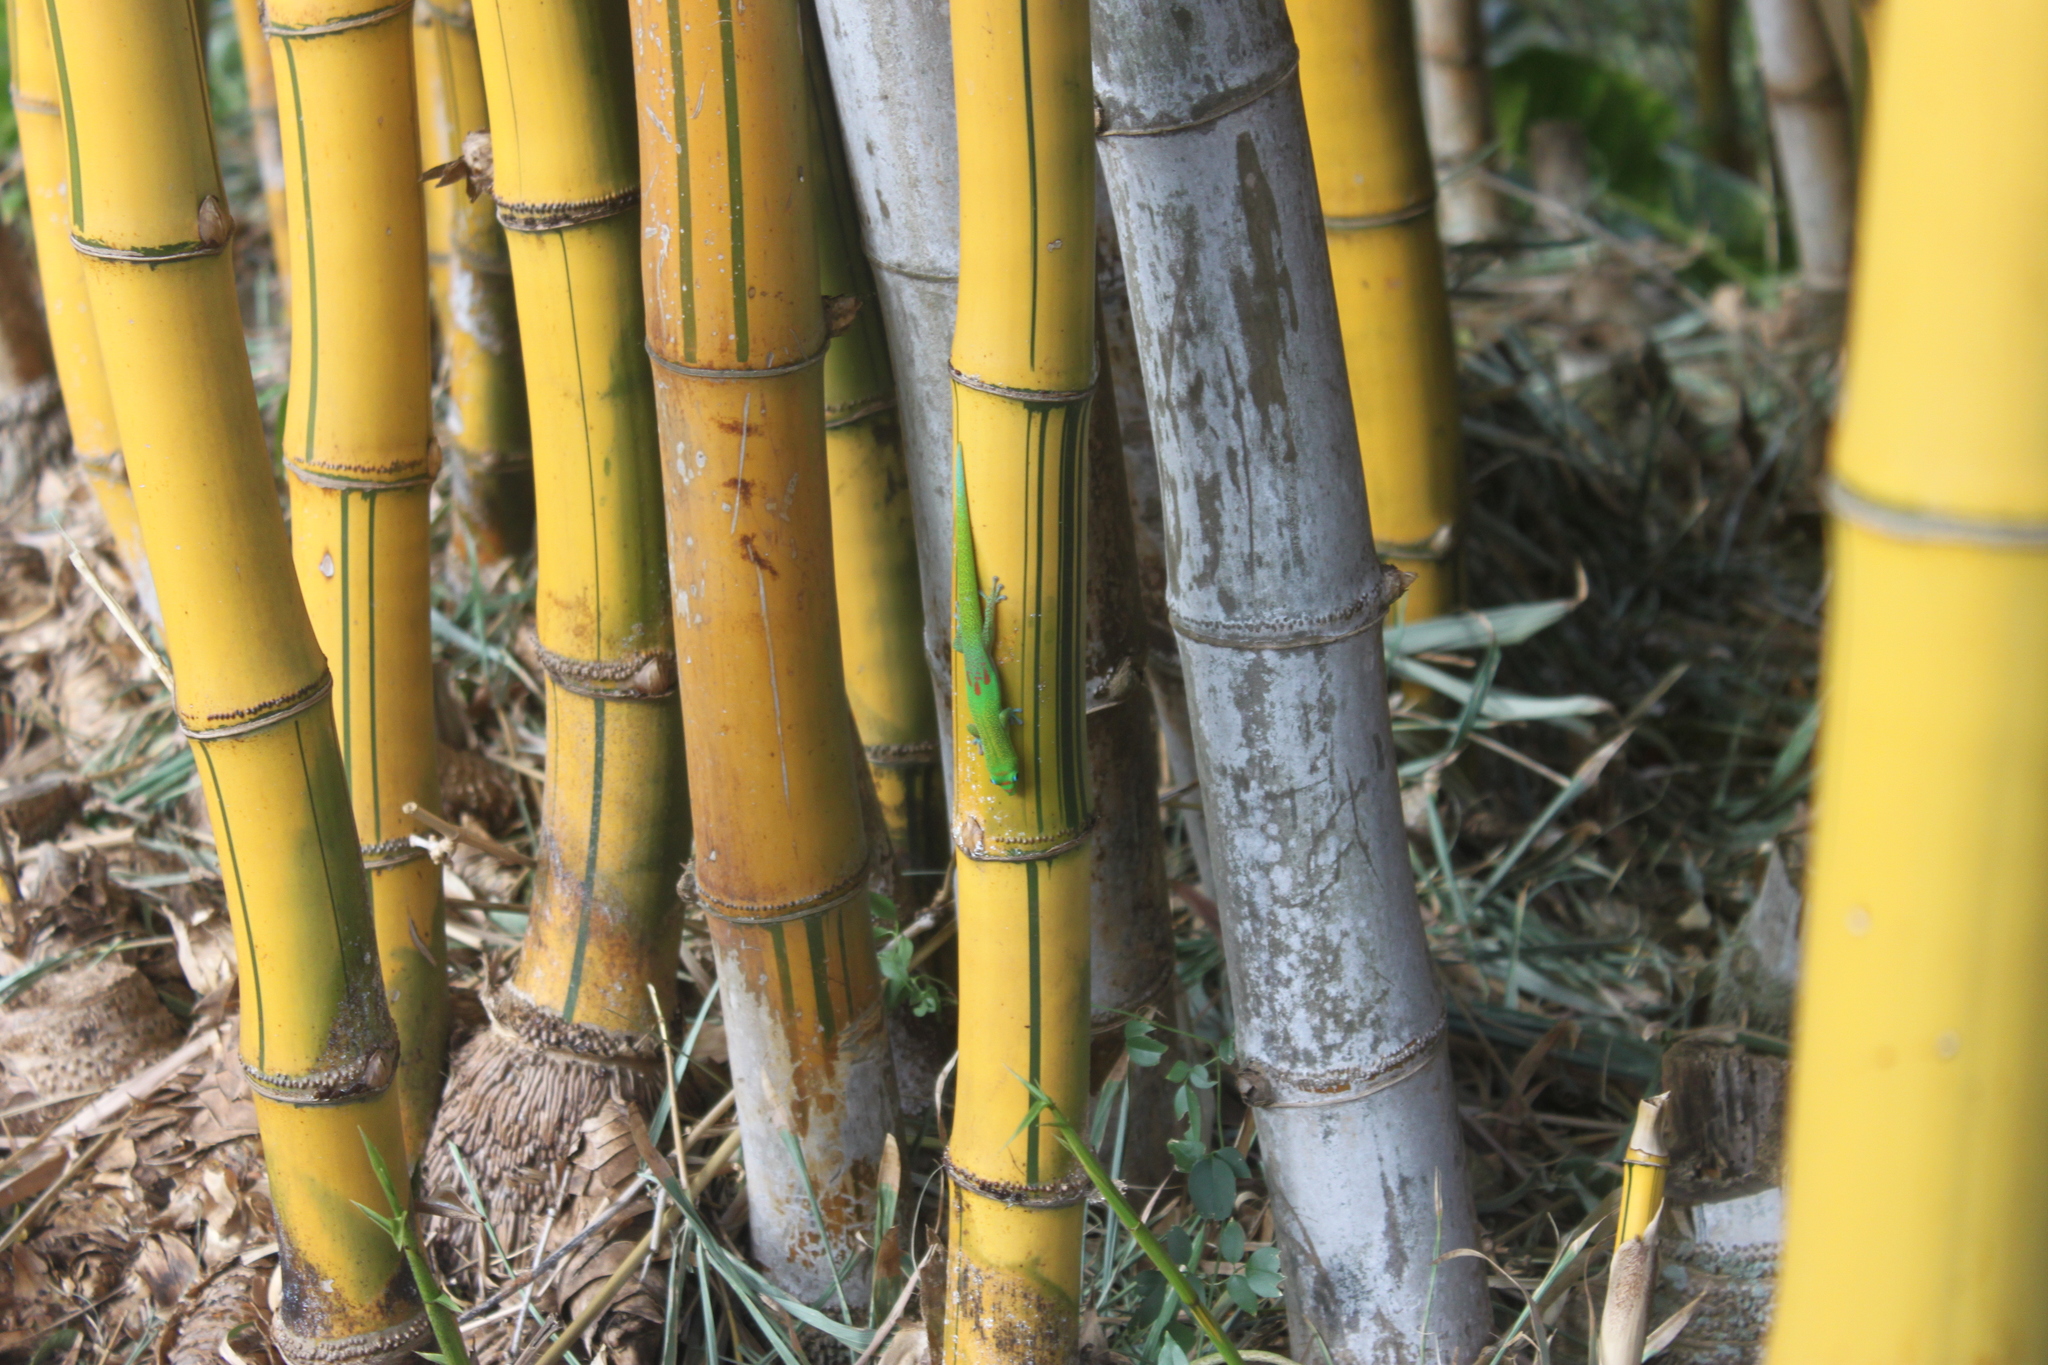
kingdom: Animalia
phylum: Chordata
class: Squamata
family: Gekkonidae
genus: Phelsuma
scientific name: Phelsuma laticauda
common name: Gold dust day gecko
